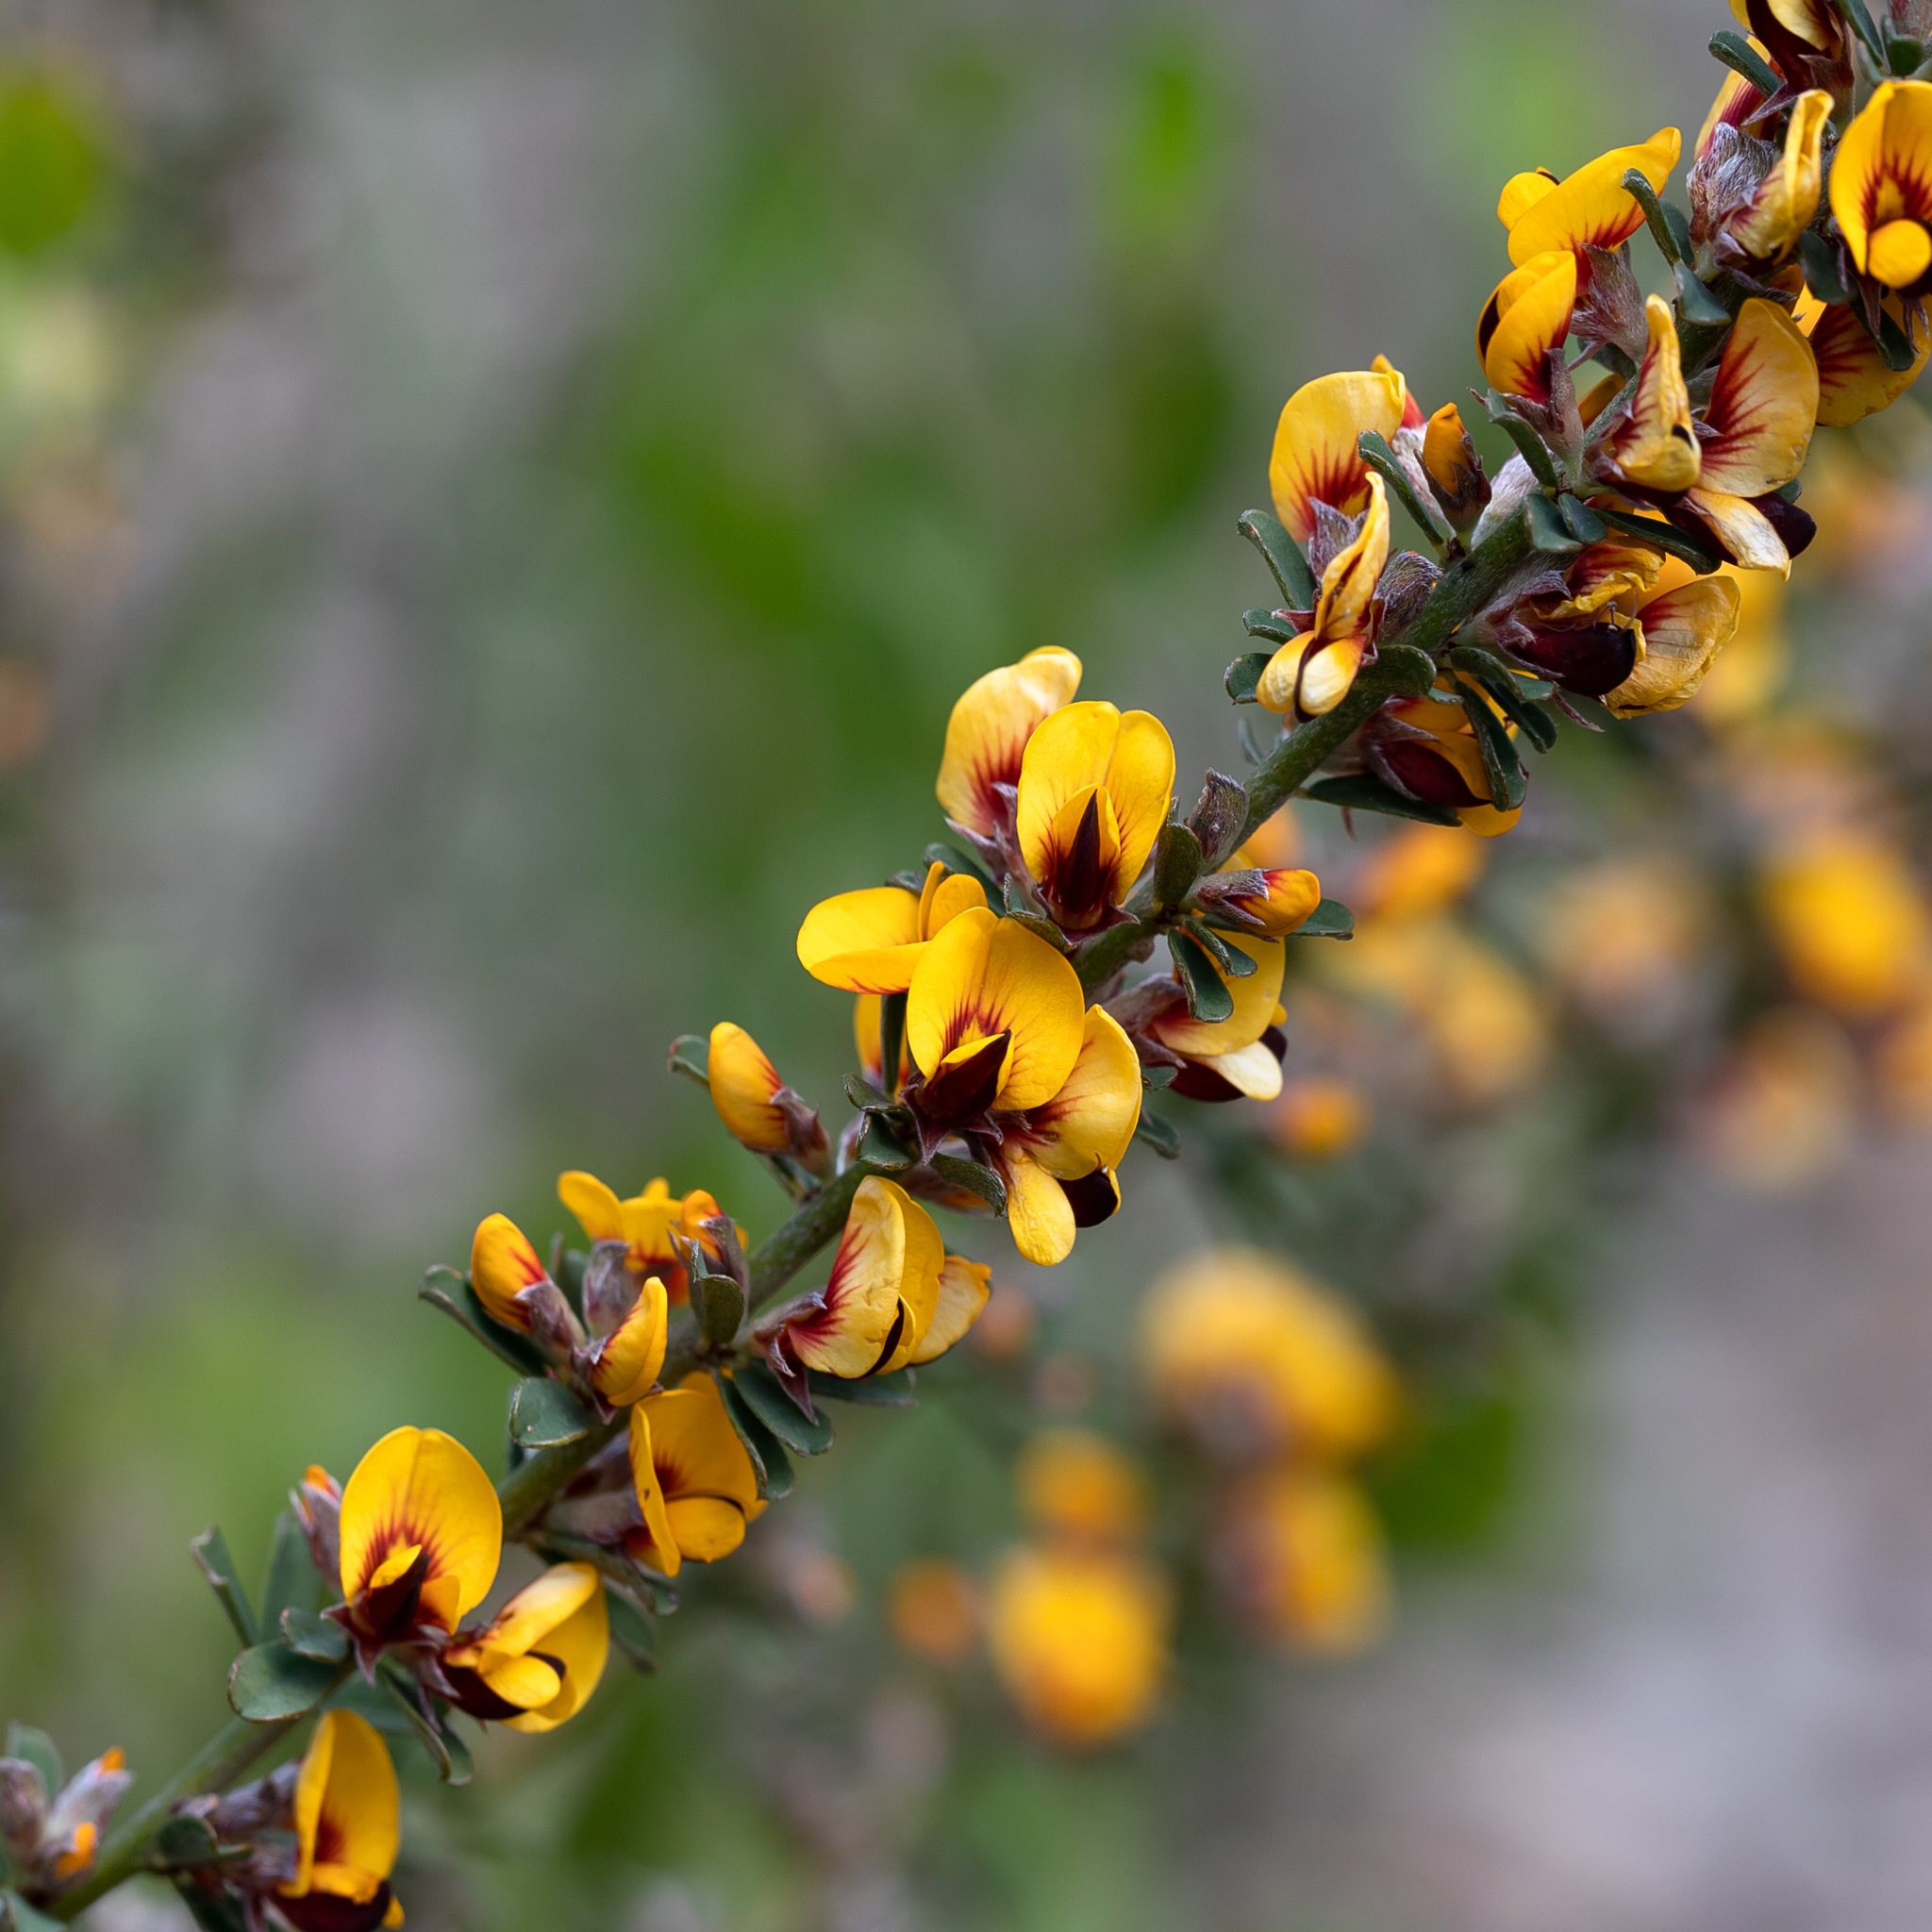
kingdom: Plantae
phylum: Tracheophyta
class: Magnoliopsida
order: Fabales
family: Fabaceae
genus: Pultenaea
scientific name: Pultenaea largiflorens
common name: Twiggy bush-pea
